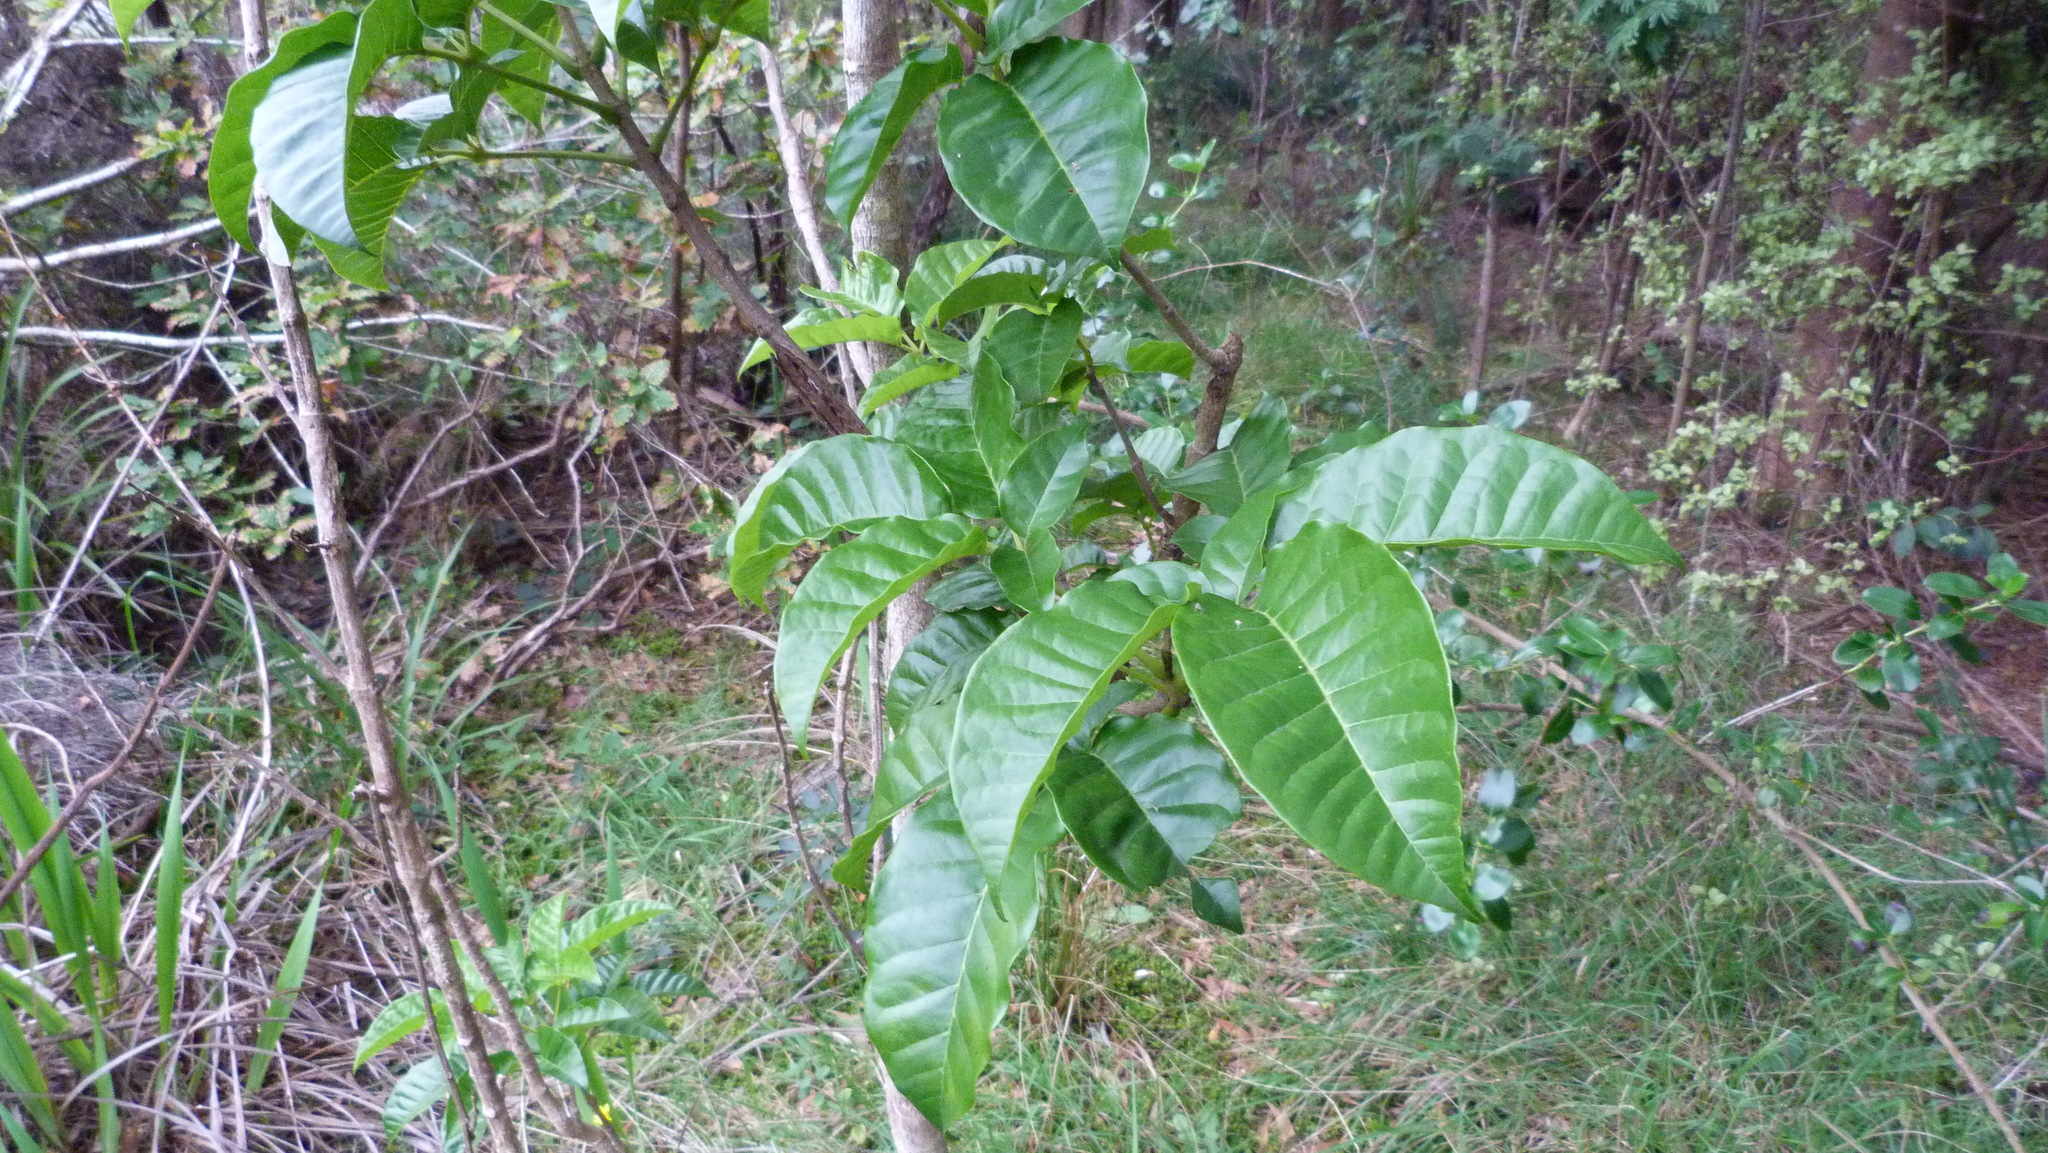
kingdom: Plantae
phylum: Tracheophyta
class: Magnoliopsida
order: Lamiales
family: Lamiaceae
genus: Vitex
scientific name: Vitex lucens
